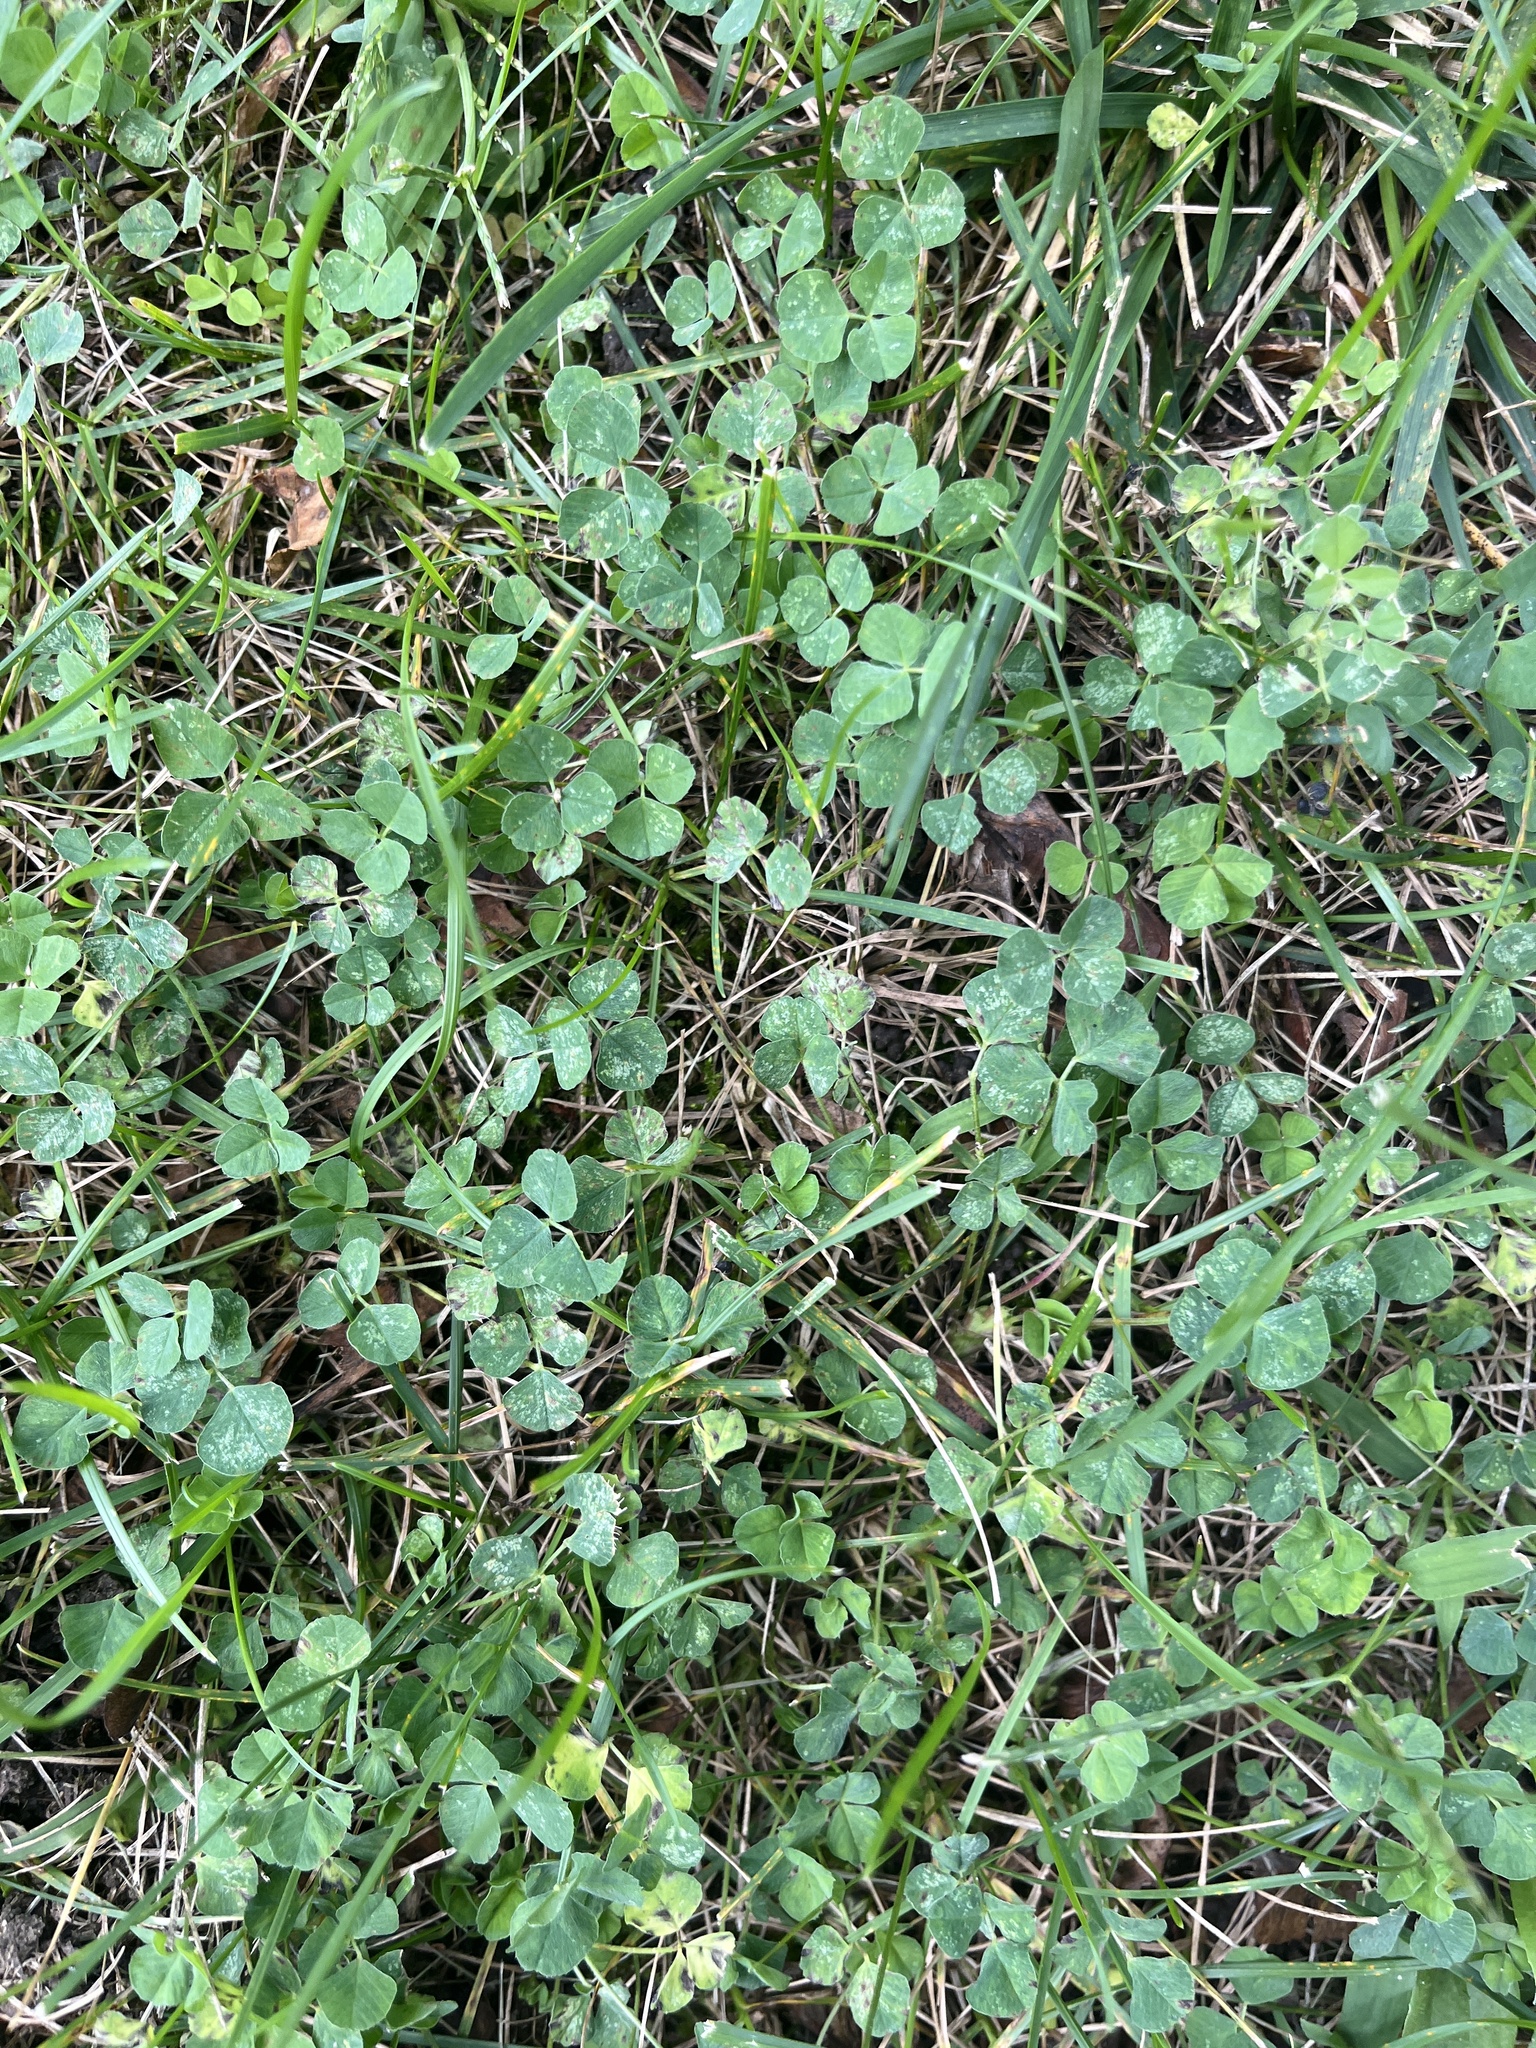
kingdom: Plantae
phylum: Tracheophyta
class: Magnoliopsida
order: Fabales
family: Fabaceae
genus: Medicago
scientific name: Medicago lupulina
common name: Black medick
